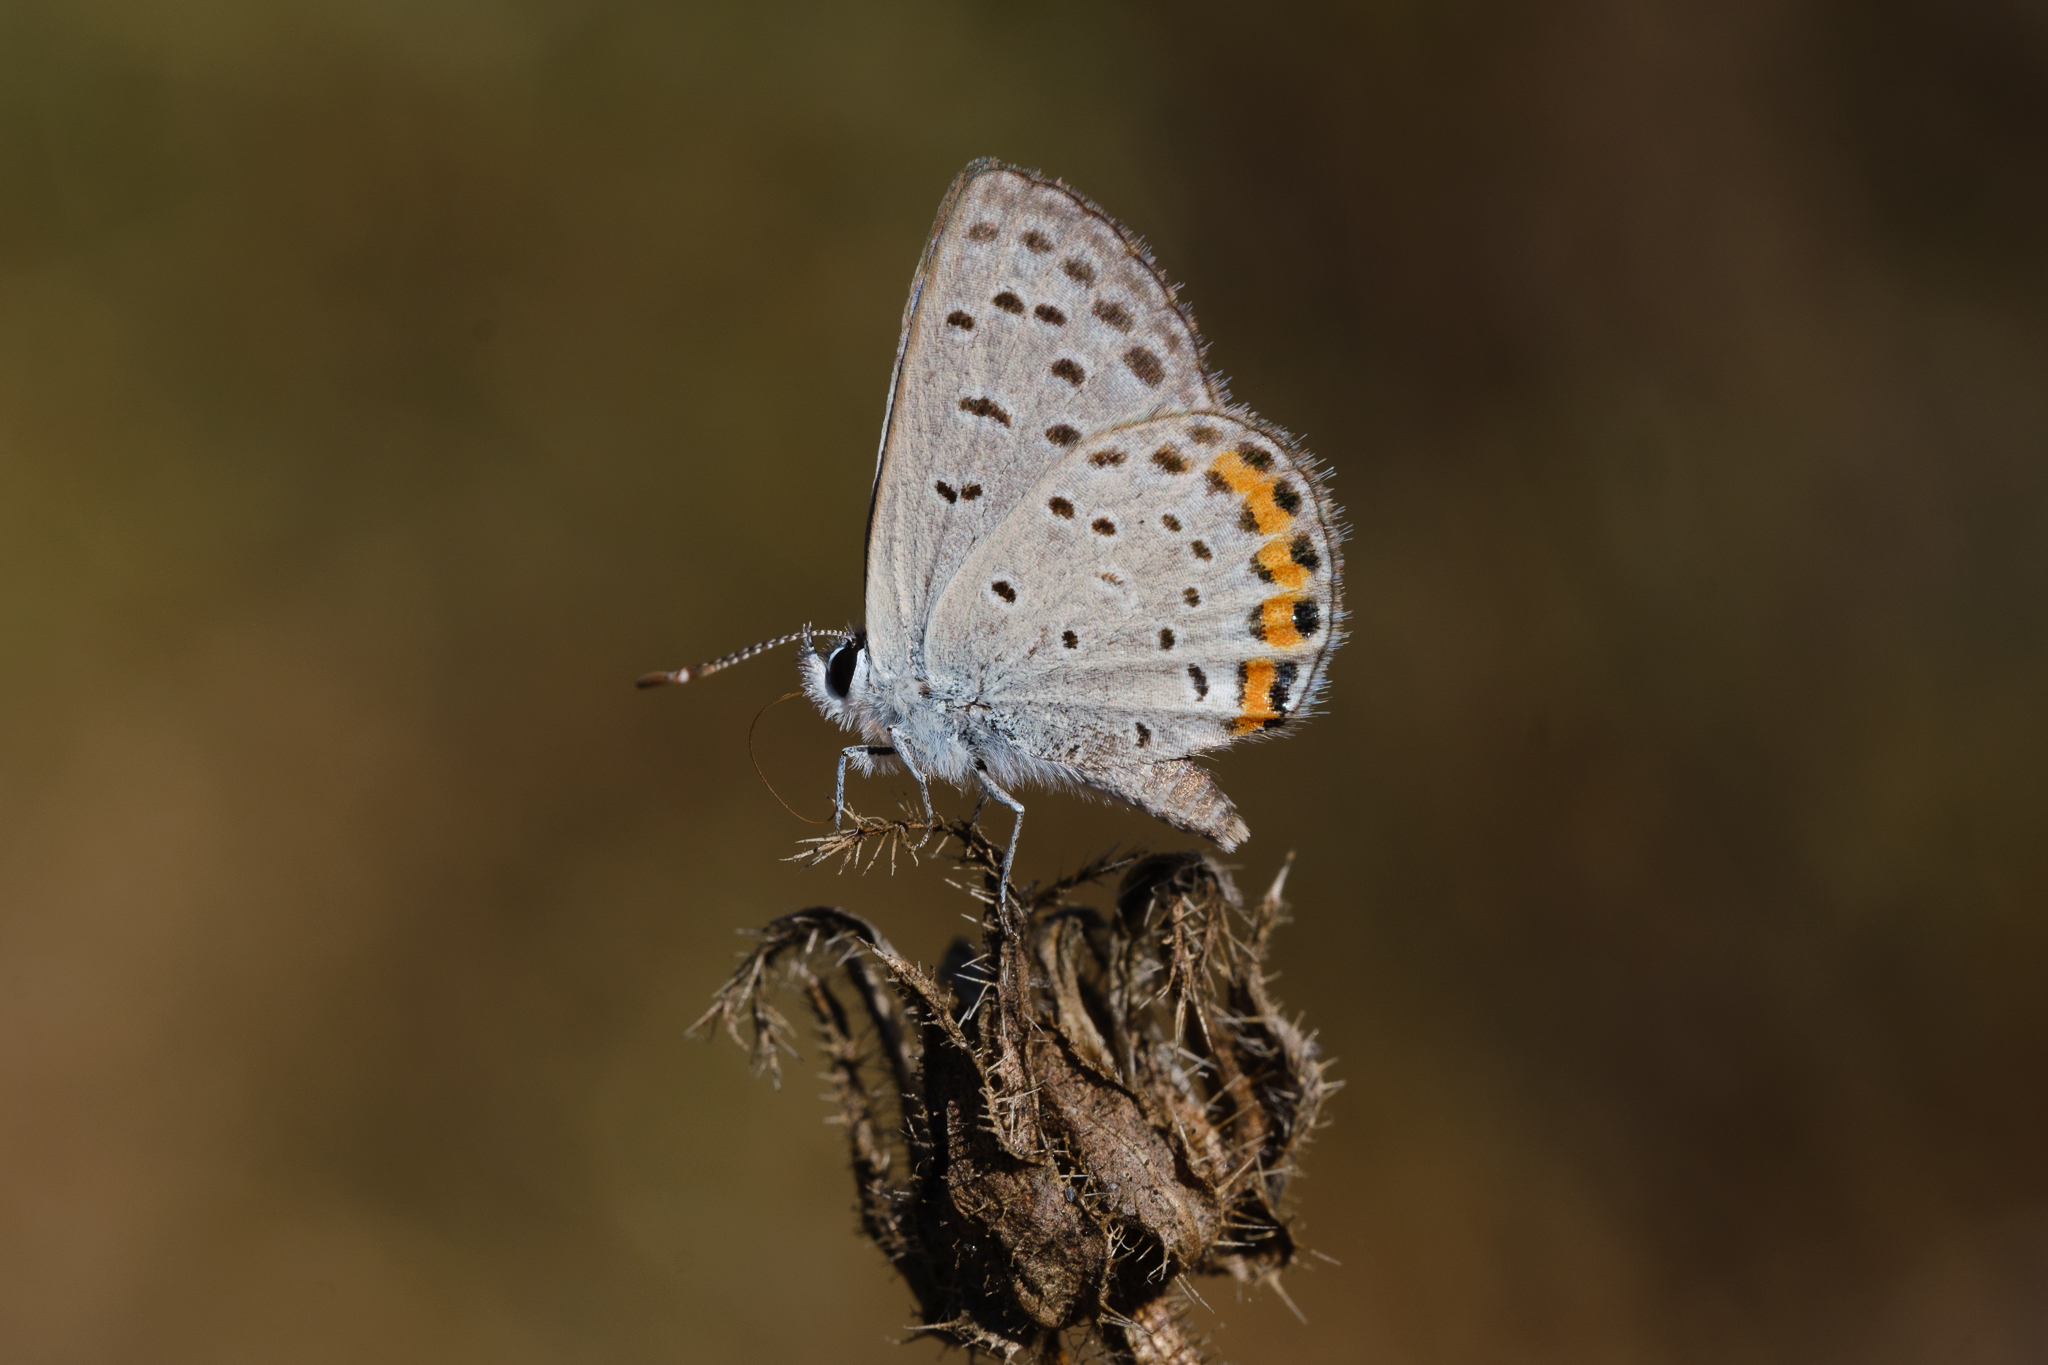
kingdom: Animalia
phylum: Arthropoda
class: Insecta
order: Lepidoptera
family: Lycaenidae
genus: Icaricia
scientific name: Icaricia acmon
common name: Acmon blue
